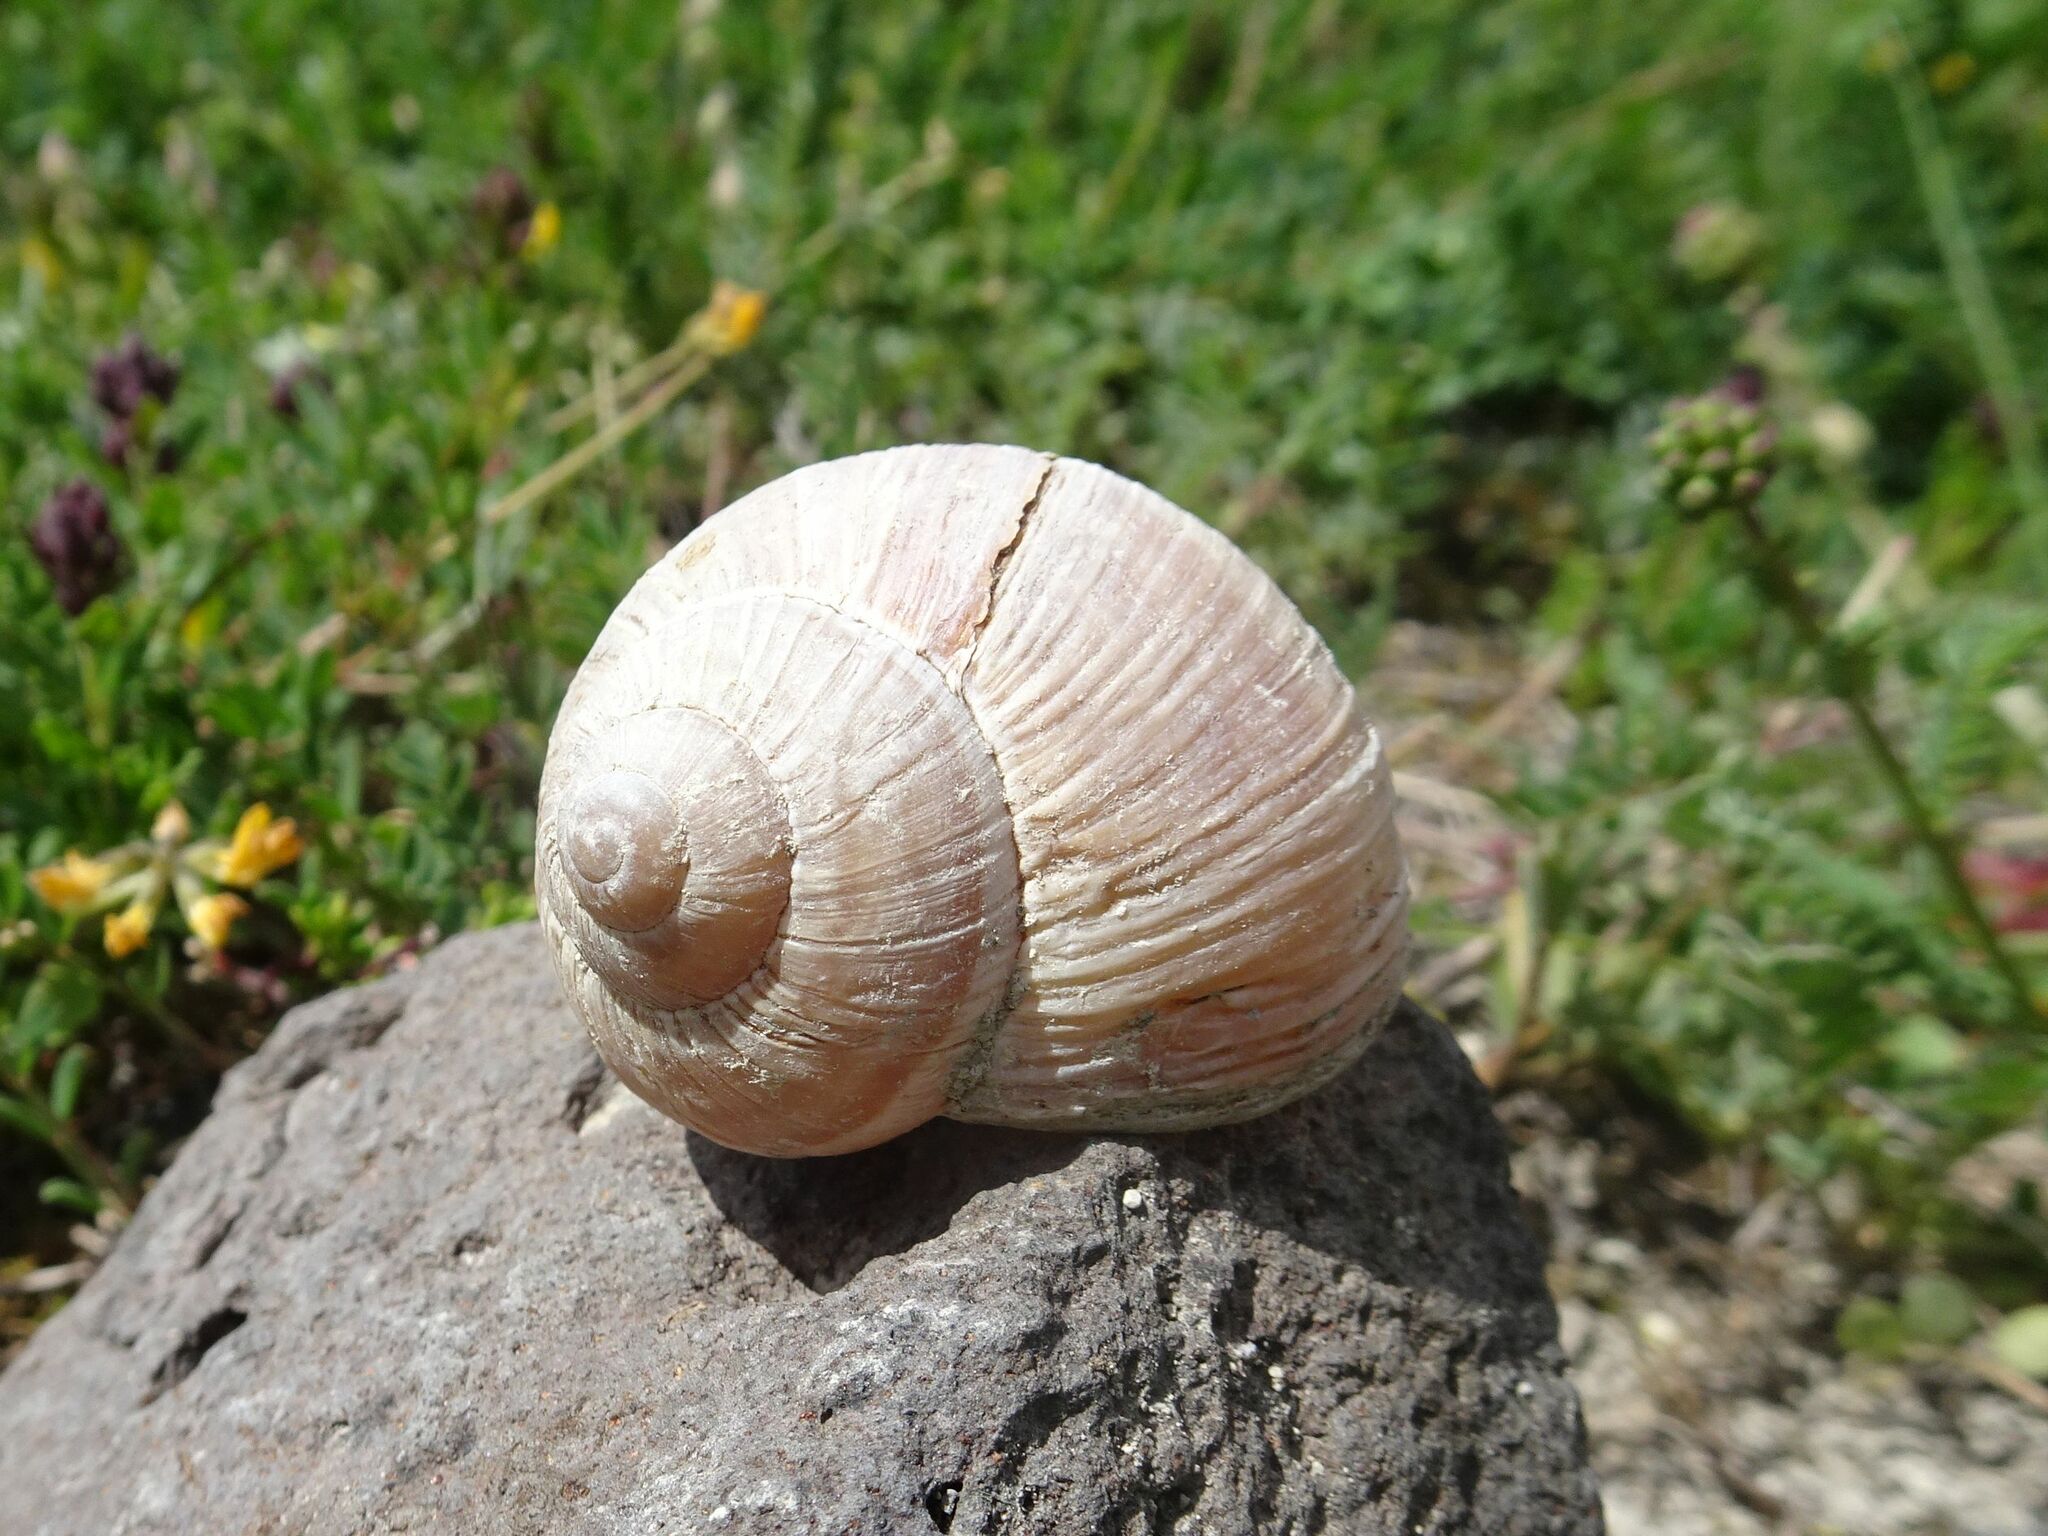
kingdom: Animalia
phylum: Mollusca
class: Gastropoda
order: Stylommatophora
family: Helicidae
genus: Helix
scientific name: Helix pomatia
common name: Roman snail
